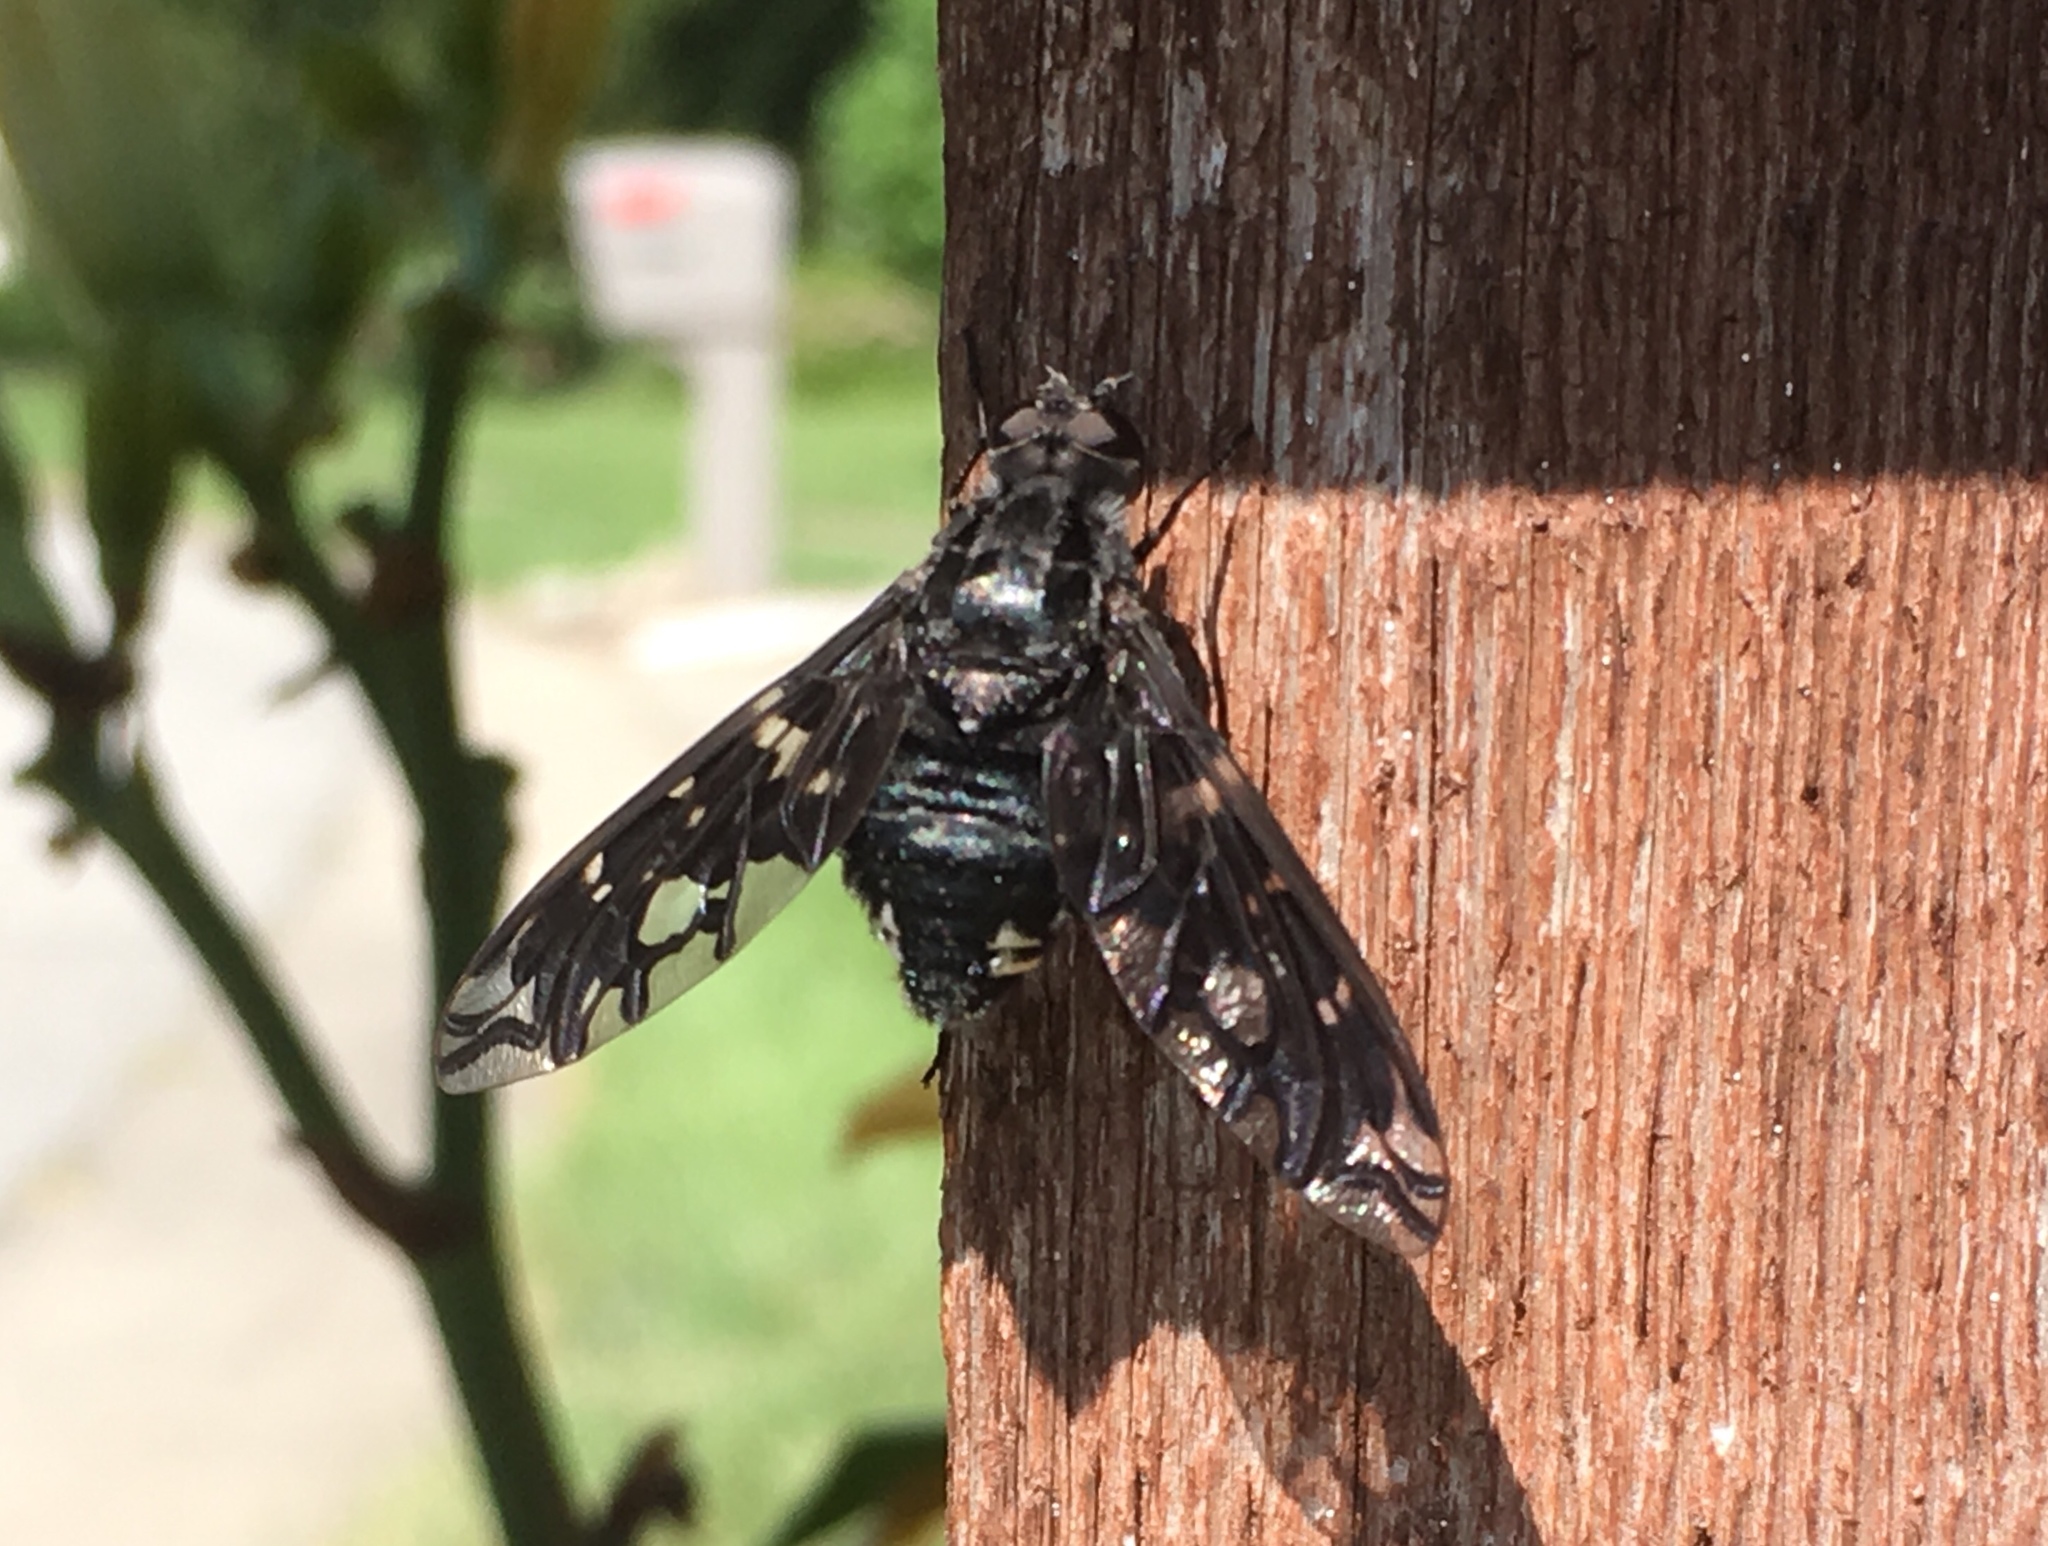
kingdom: Animalia
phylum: Arthropoda
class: Insecta
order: Diptera
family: Bombyliidae
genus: Xenox
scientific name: Xenox tigrinus
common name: Tiger bee fly
